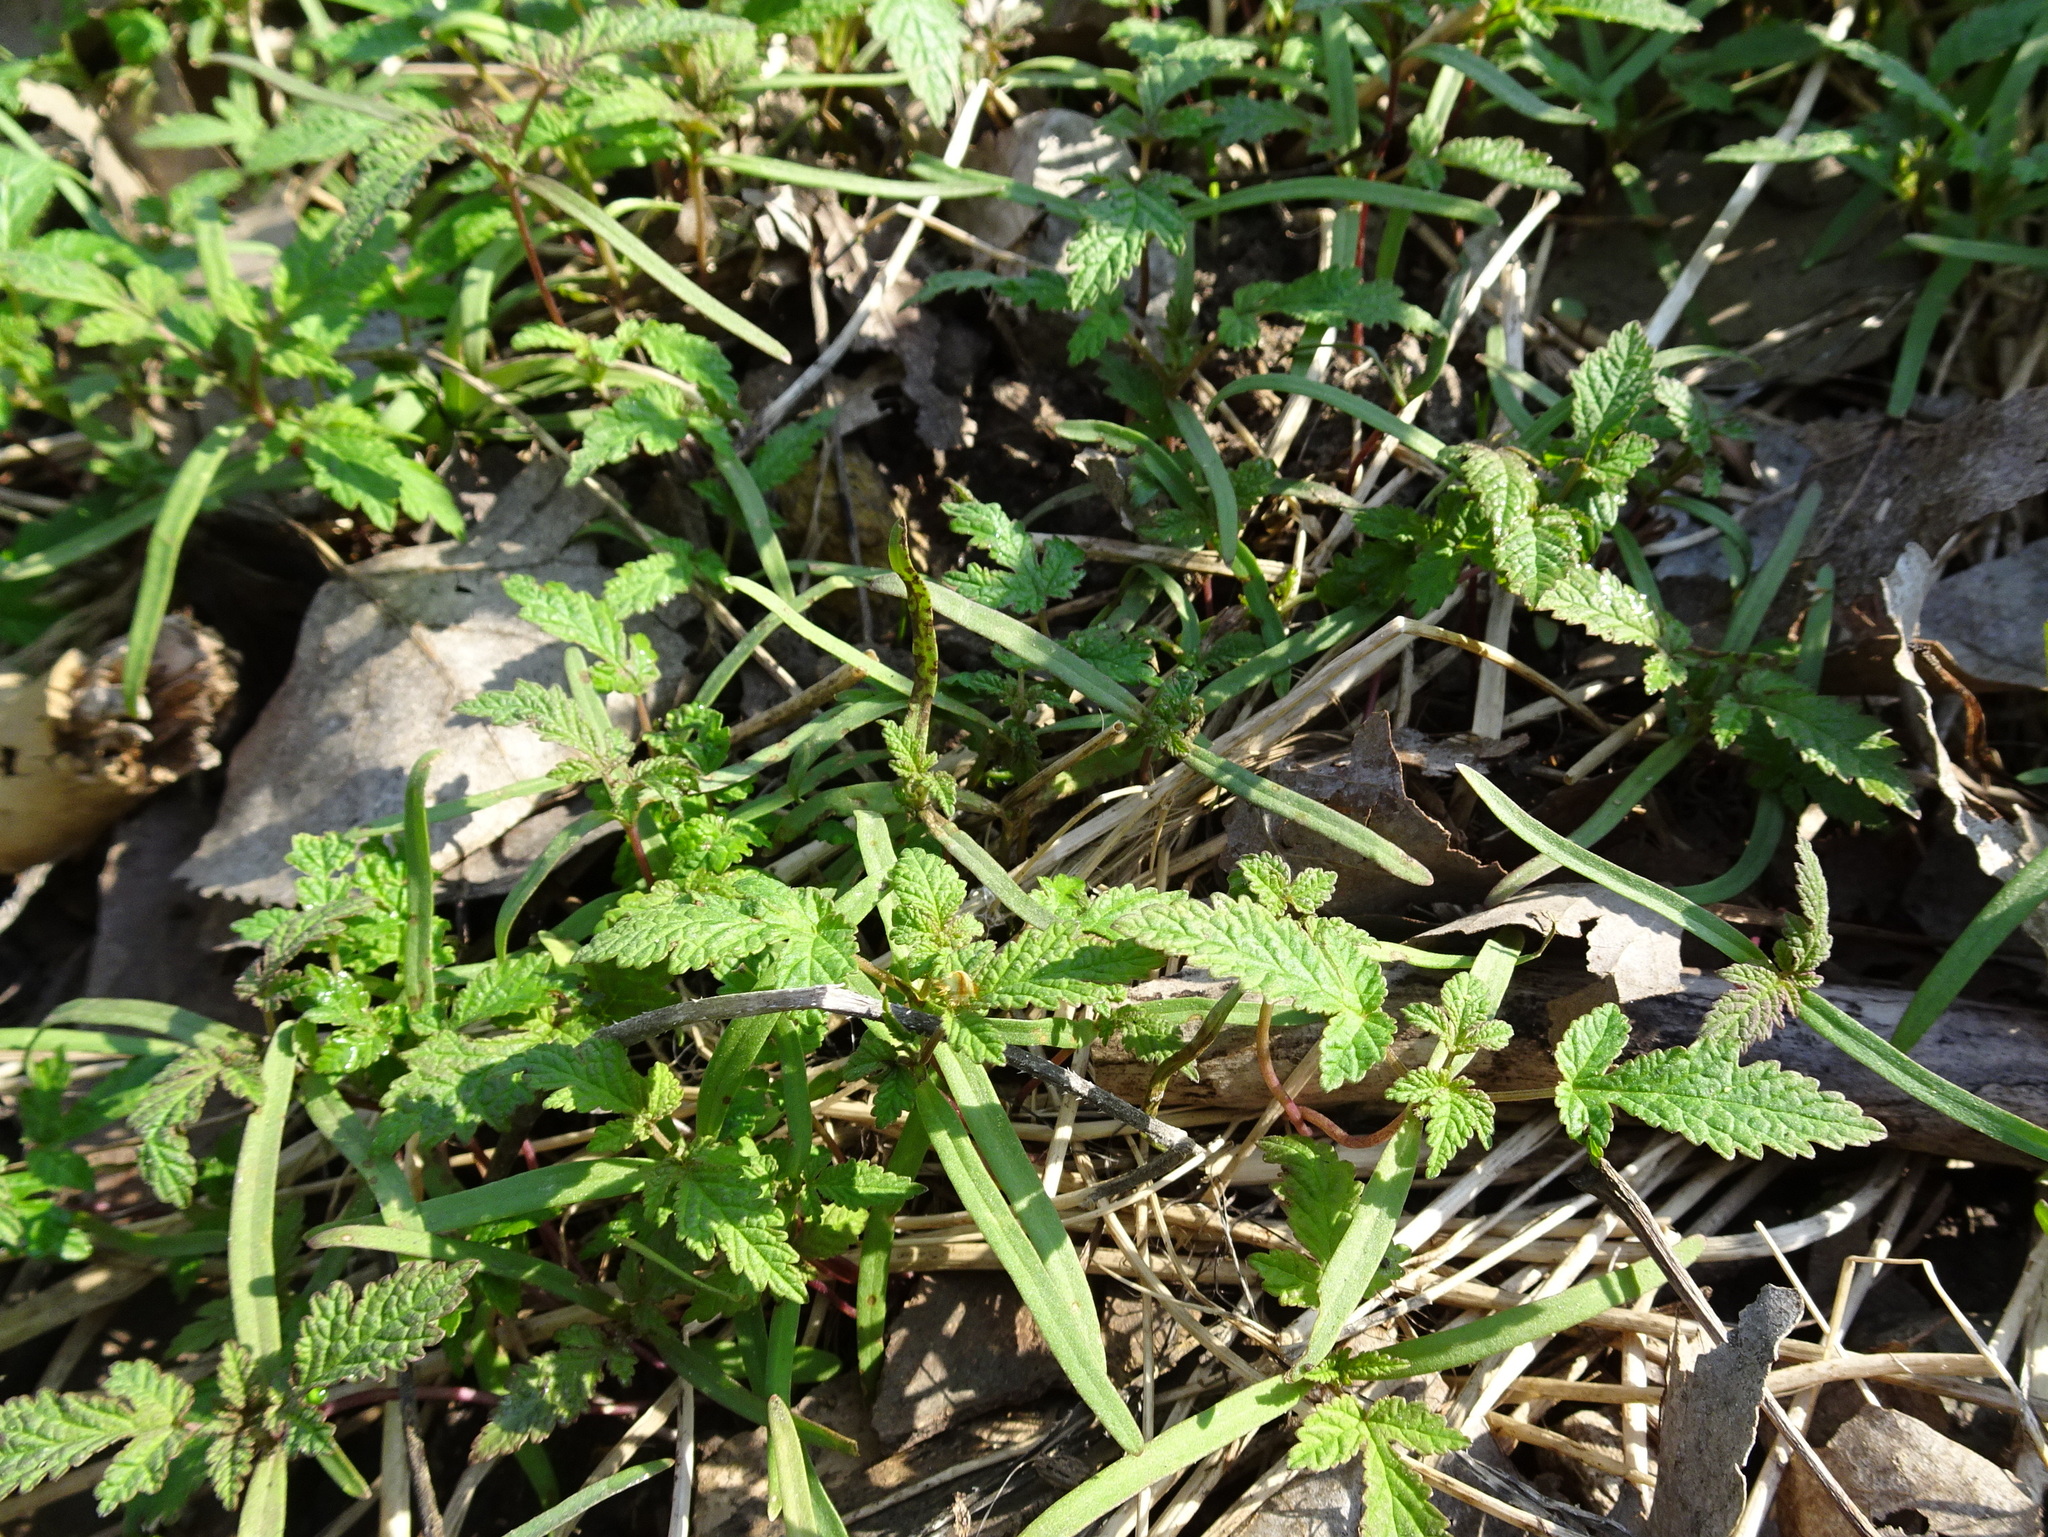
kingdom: Plantae
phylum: Tracheophyta
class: Magnoliopsida
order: Rosales
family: Cannabaceae
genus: Humulus
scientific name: Humulus scandens
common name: Japanese hop
